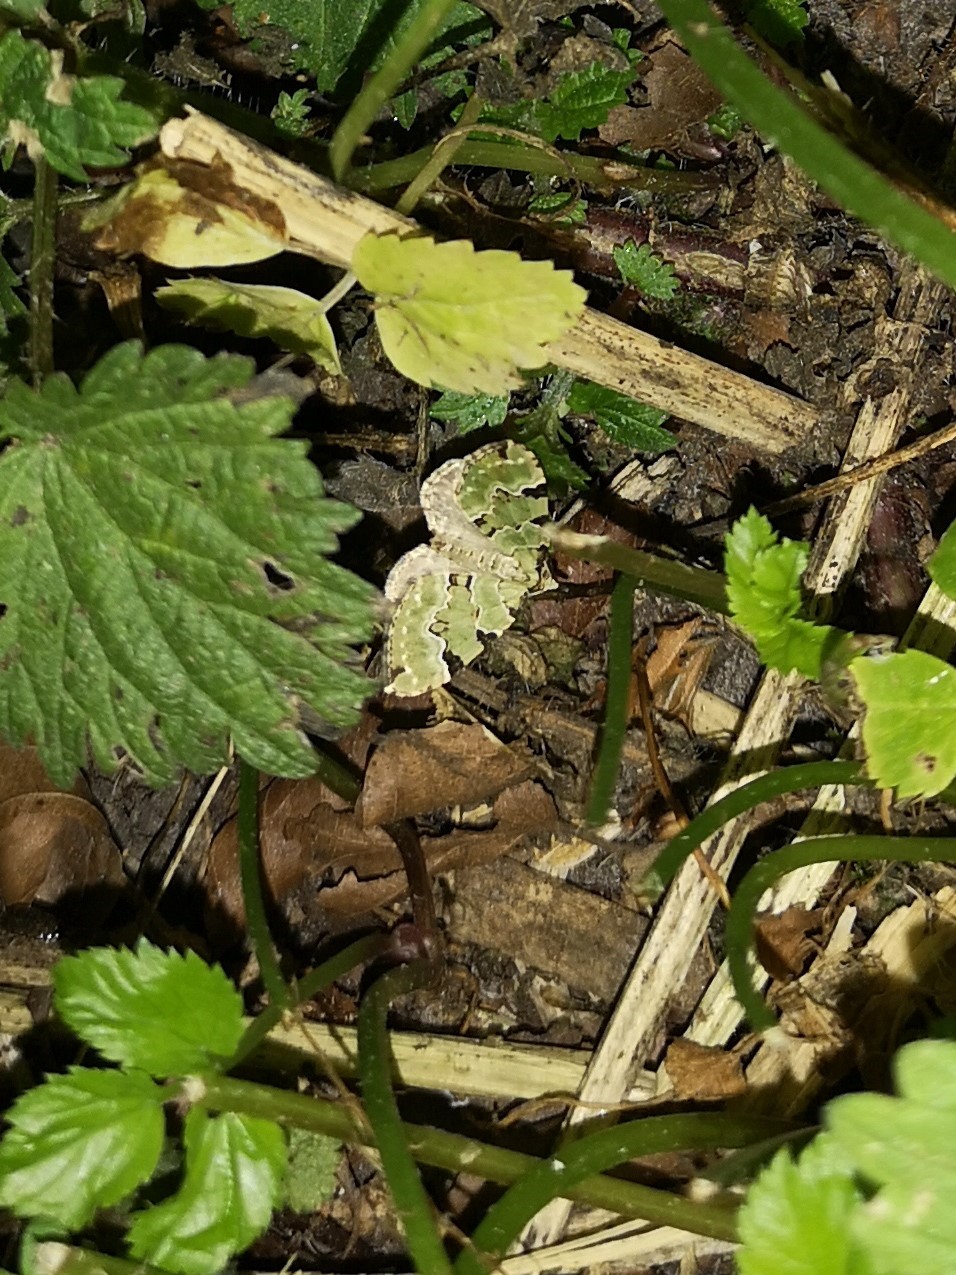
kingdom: Animalia
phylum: Arthropoda
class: Insecta
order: Lepidoptera
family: Geometridae
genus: Colostygia
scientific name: Colostygia pectinataria
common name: Green carpet
